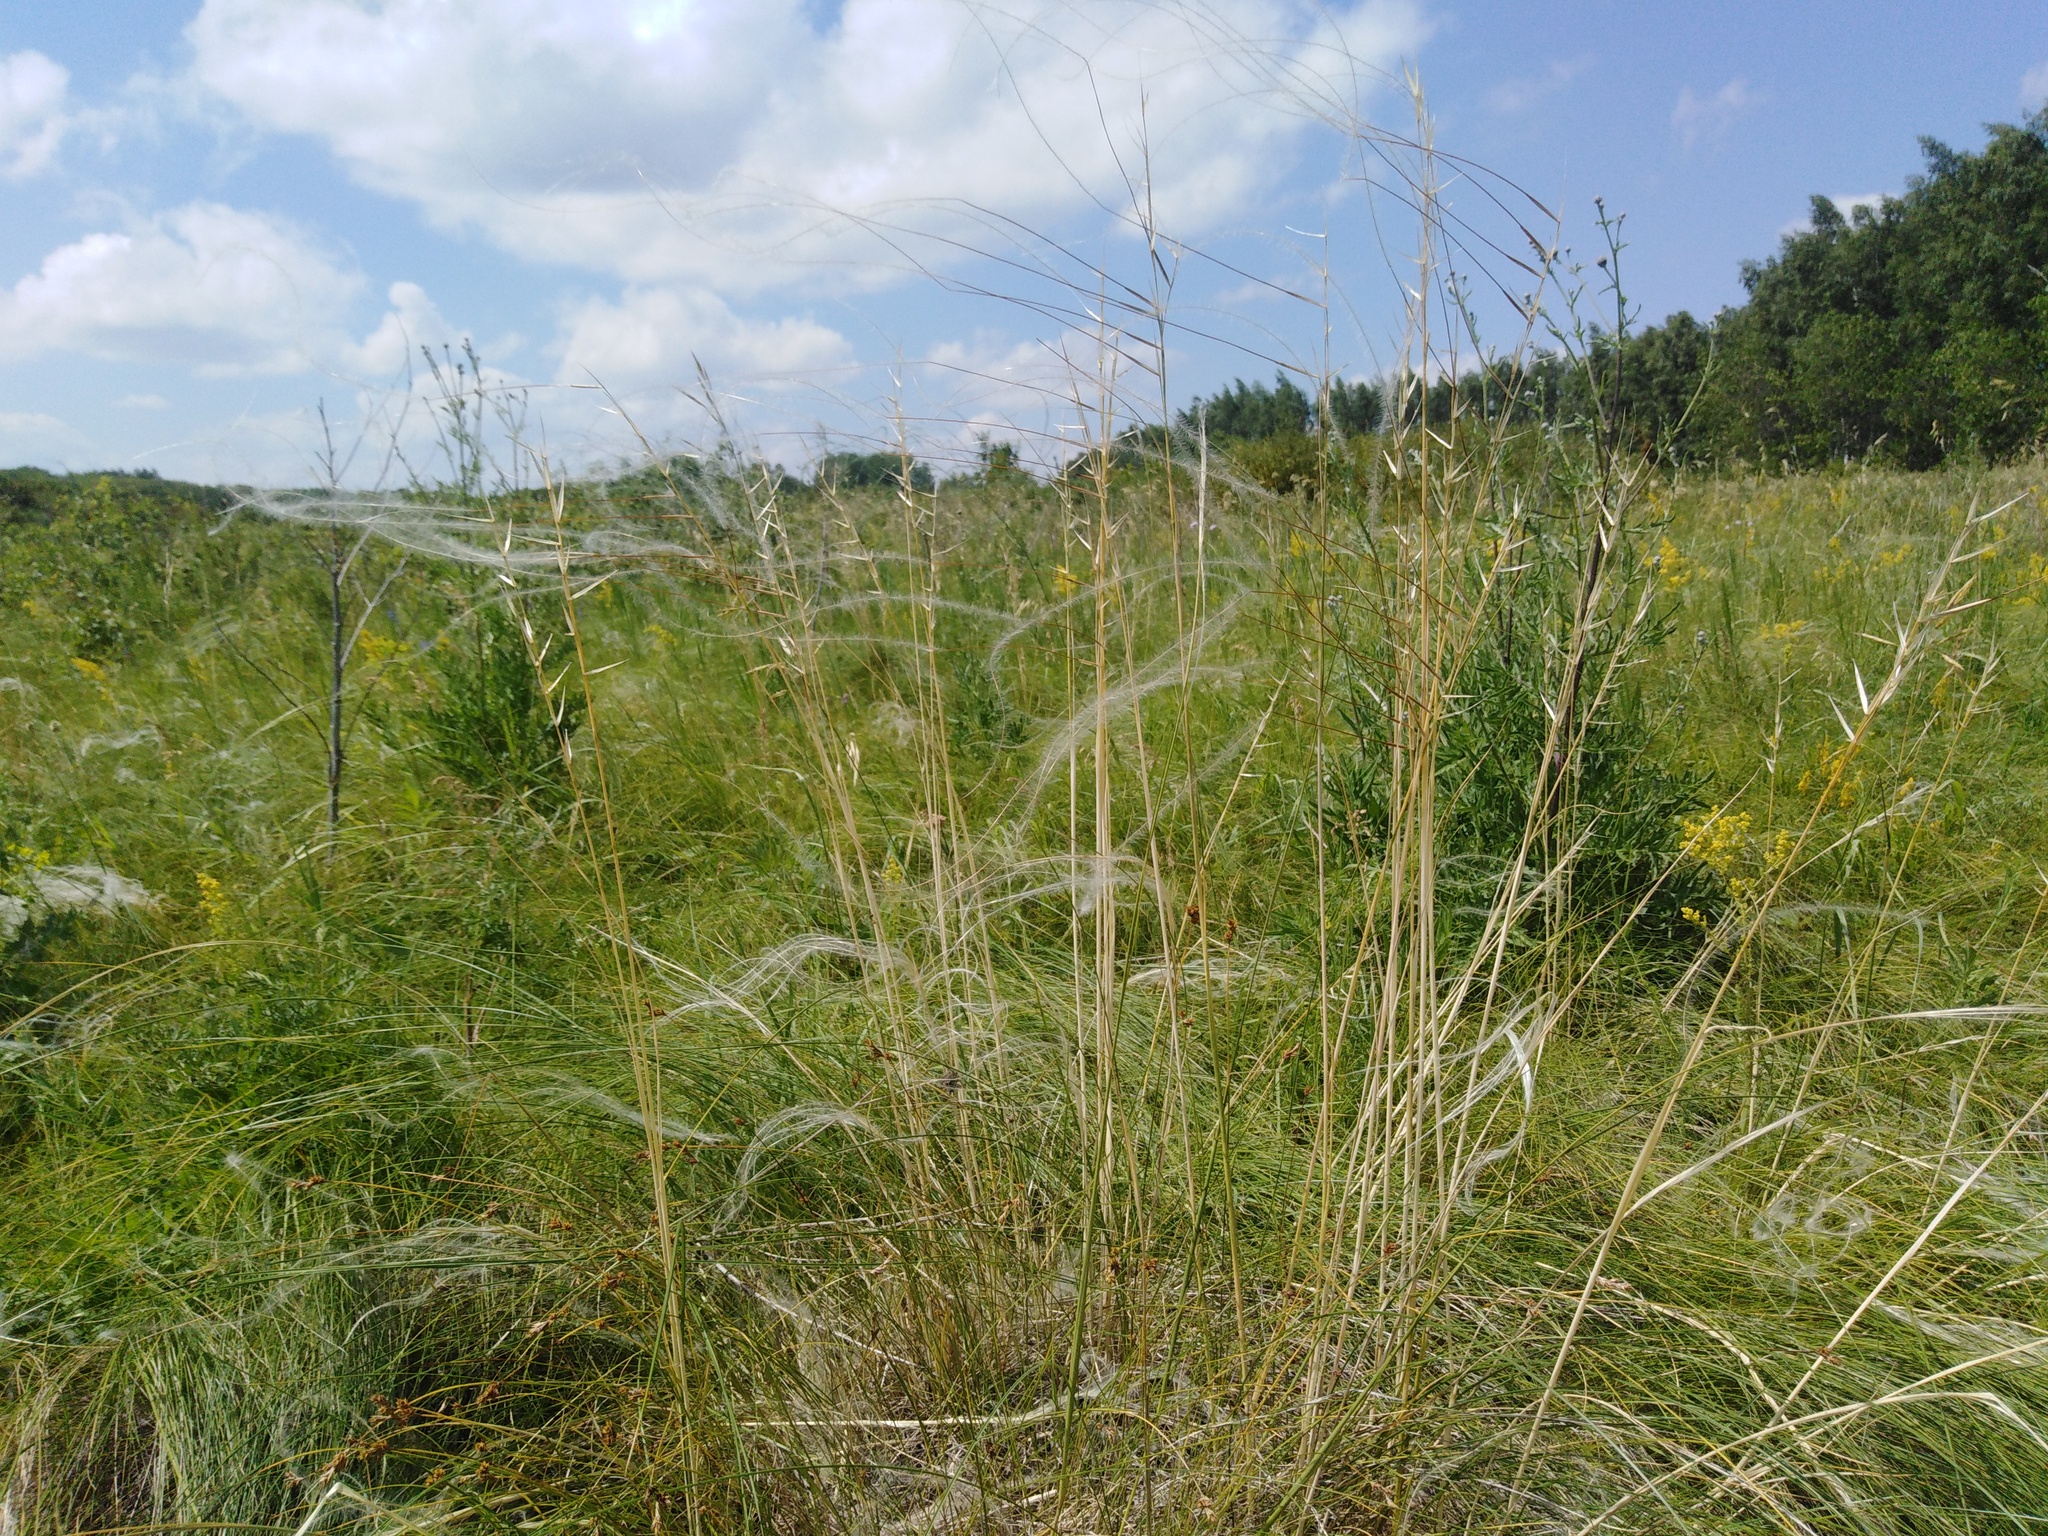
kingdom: Plantae
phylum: Tracheophyta
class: Liliopsida
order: Poales
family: Poaceae
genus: Stipa
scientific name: Stipa pennata
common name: European feather grass
